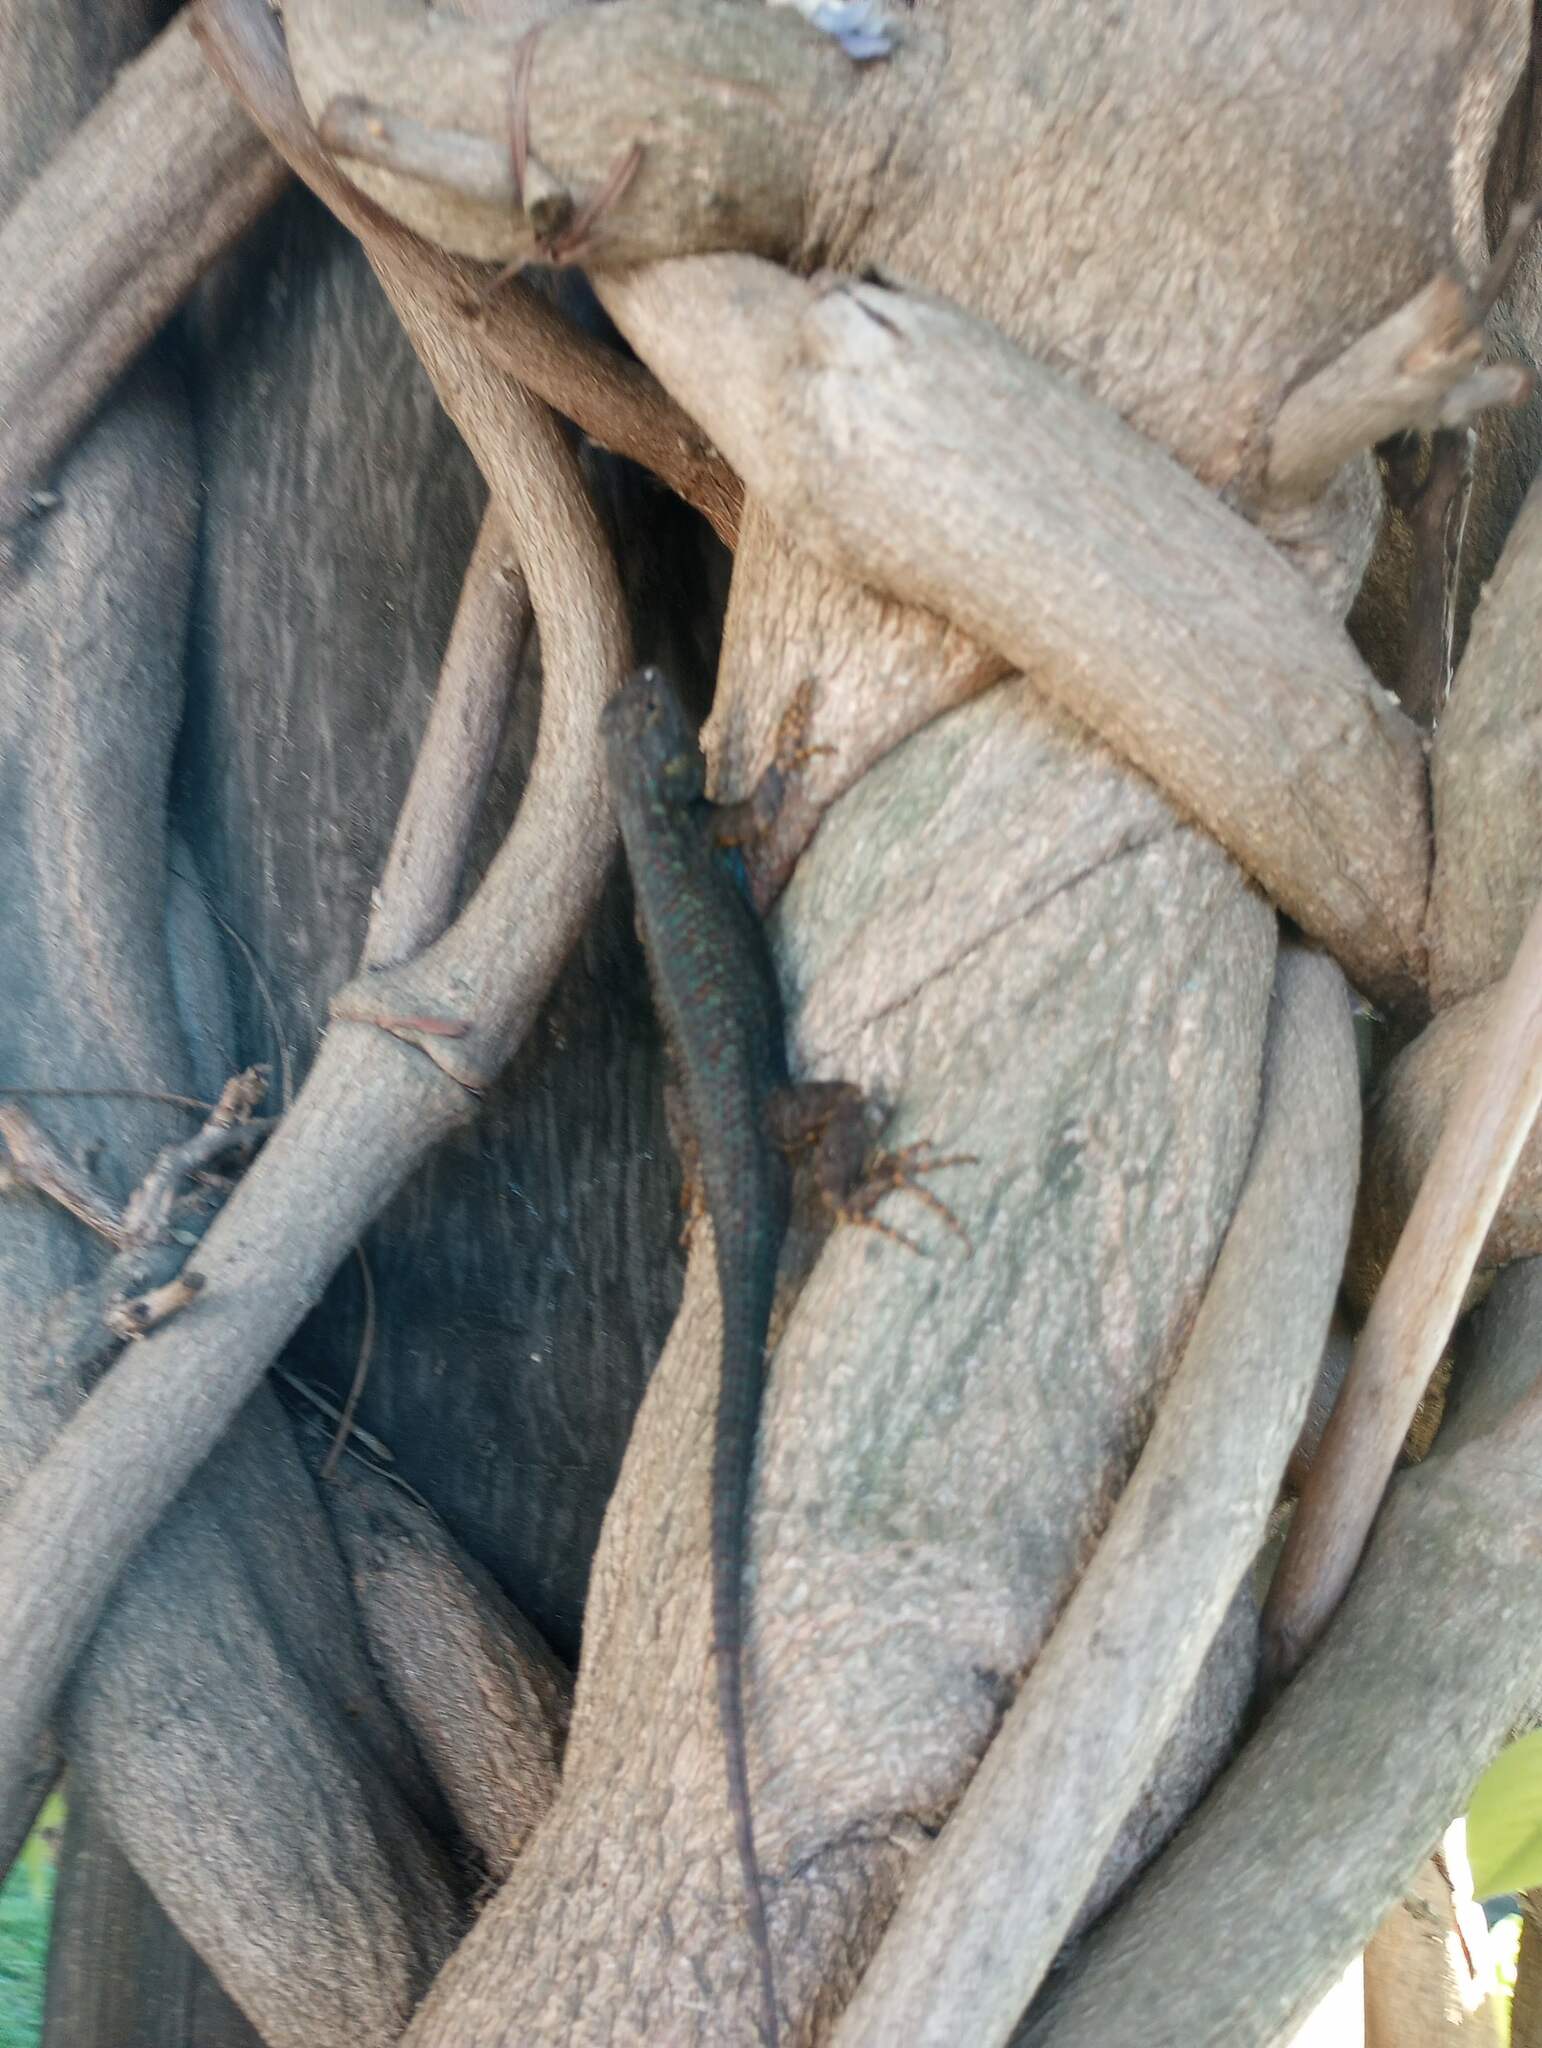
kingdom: Animalia
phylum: Chordata
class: Squamata
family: Phrynosomatidae
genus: Sceloporus
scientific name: Sceloporus occidentalis
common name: Western fence lizard
